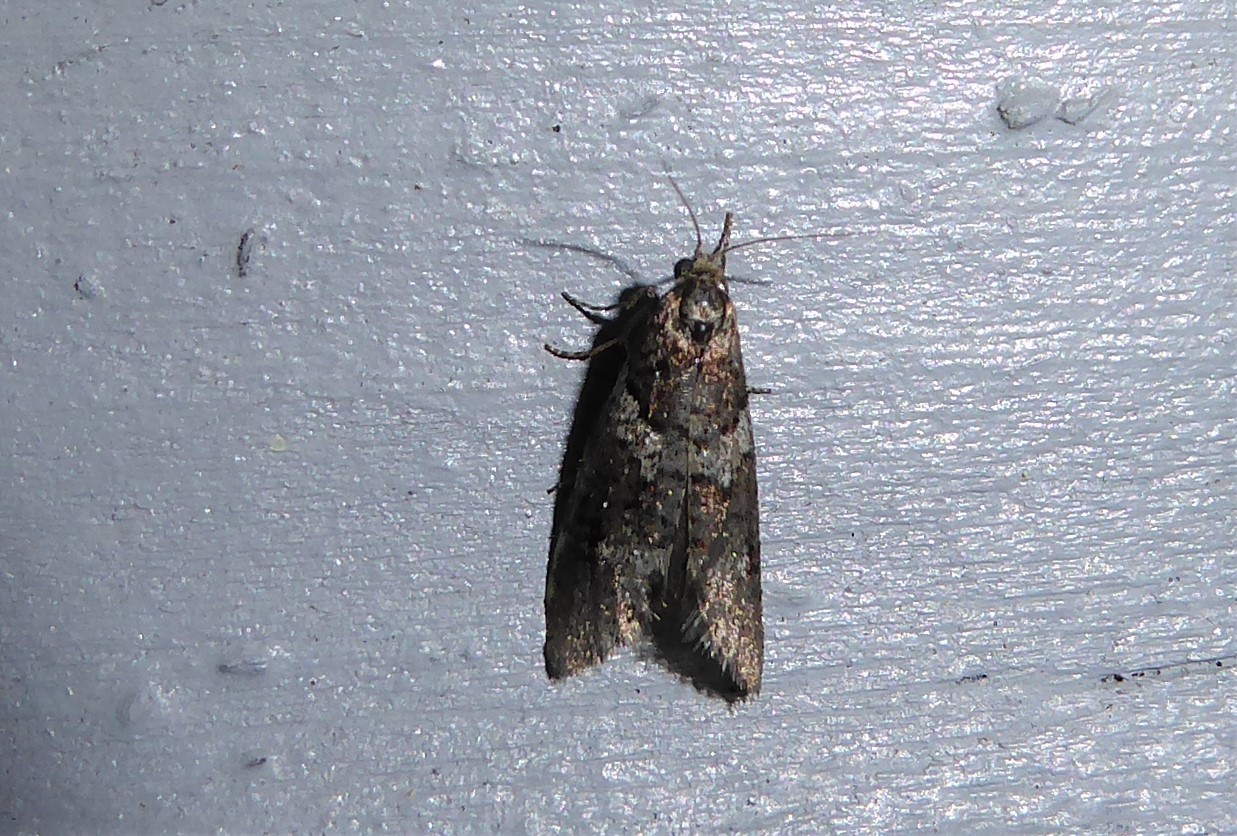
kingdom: Animalia
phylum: Arthropoda
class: Insecta
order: Lepidoptera
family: Psychidae
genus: Lepidoscia
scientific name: Lepidoscia heliochares
